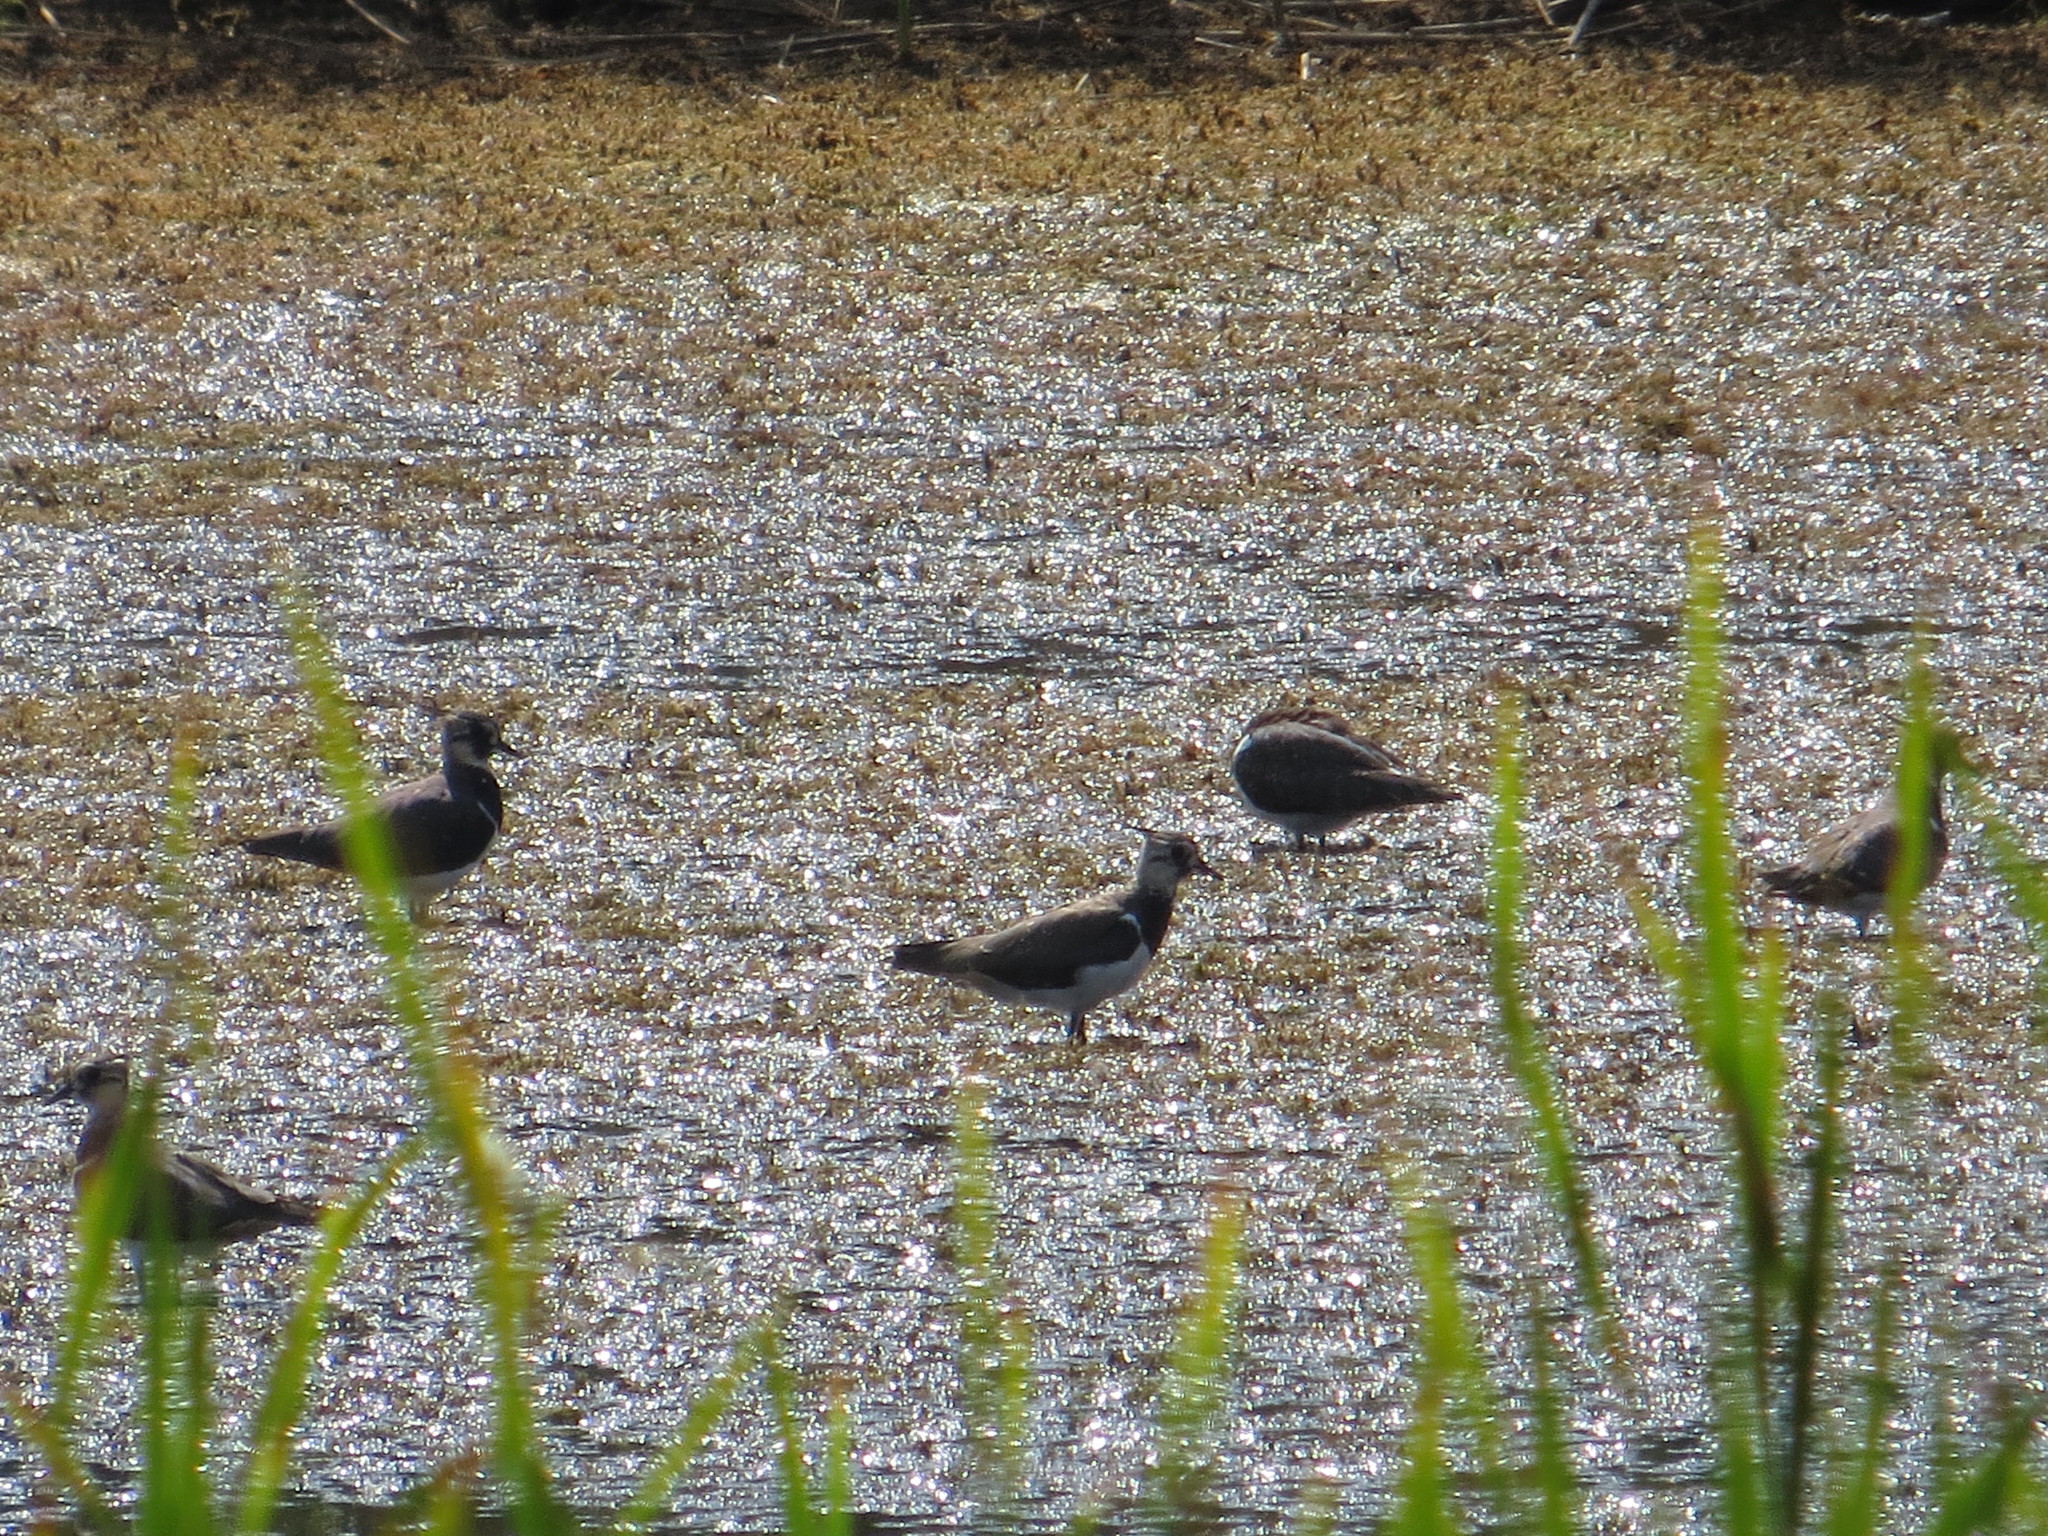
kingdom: Animalia
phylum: Chordata
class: Aves
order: Charadriiformes
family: Charadriidae
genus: Vanellus
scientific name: Vanellus vanellus
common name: Northern lapwing
